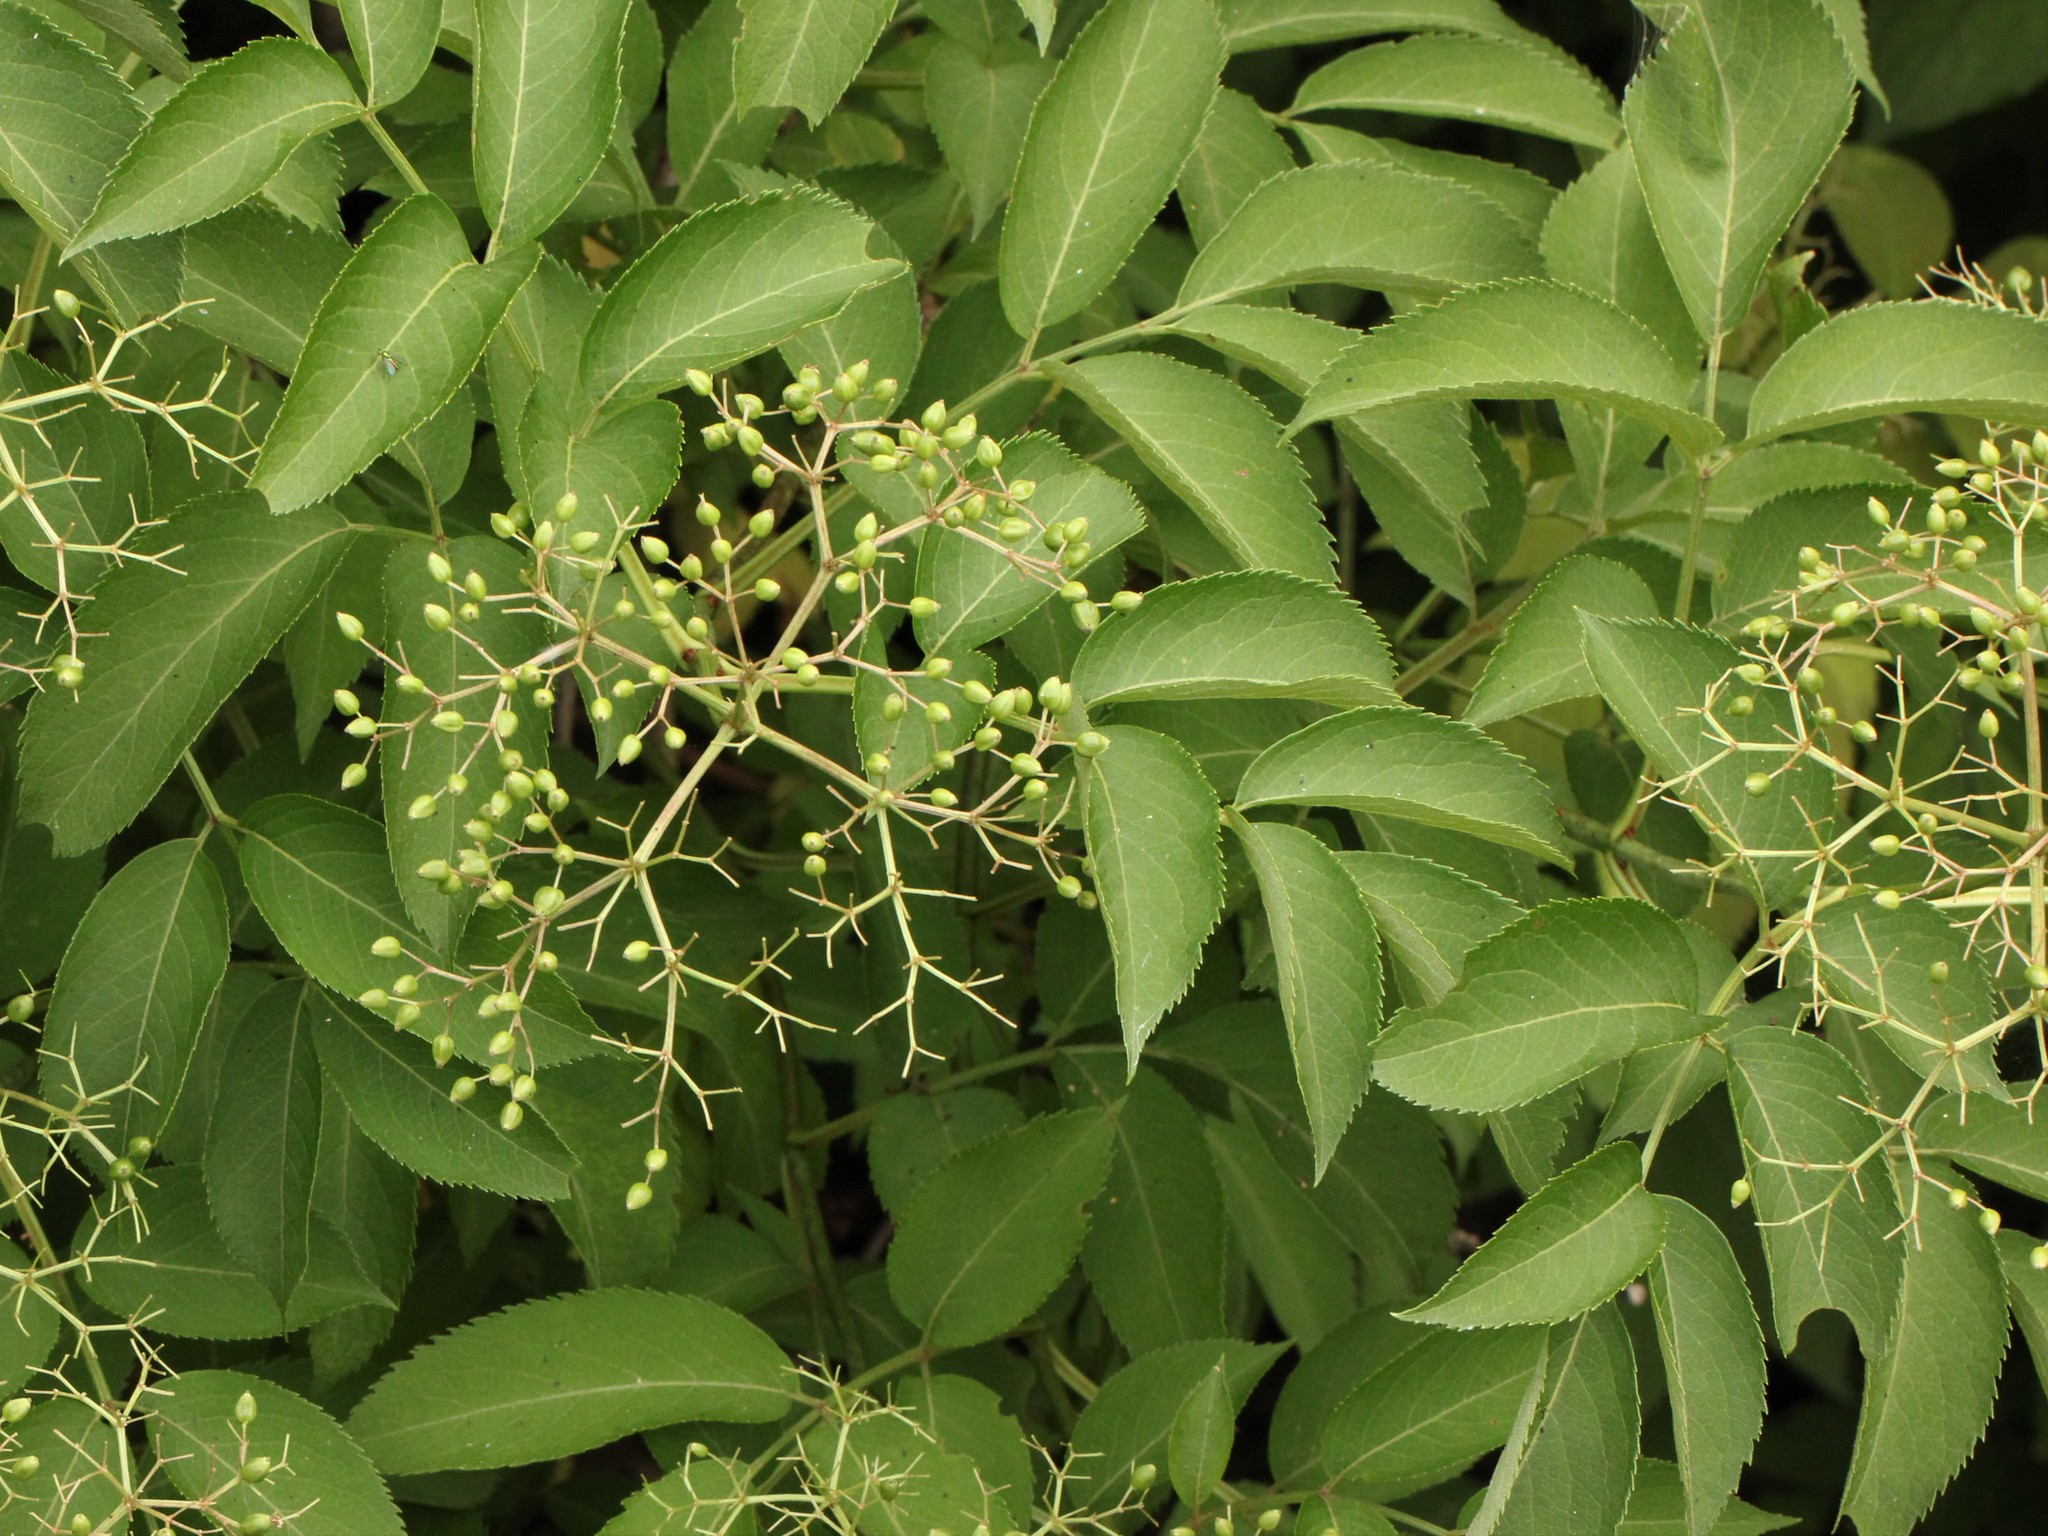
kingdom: Plantae
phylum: Tracheophyta
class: Magnoliopsida
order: Dipsacales
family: Viburnaceae
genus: Sambucus
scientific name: Sambucus canadensis
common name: American elder
